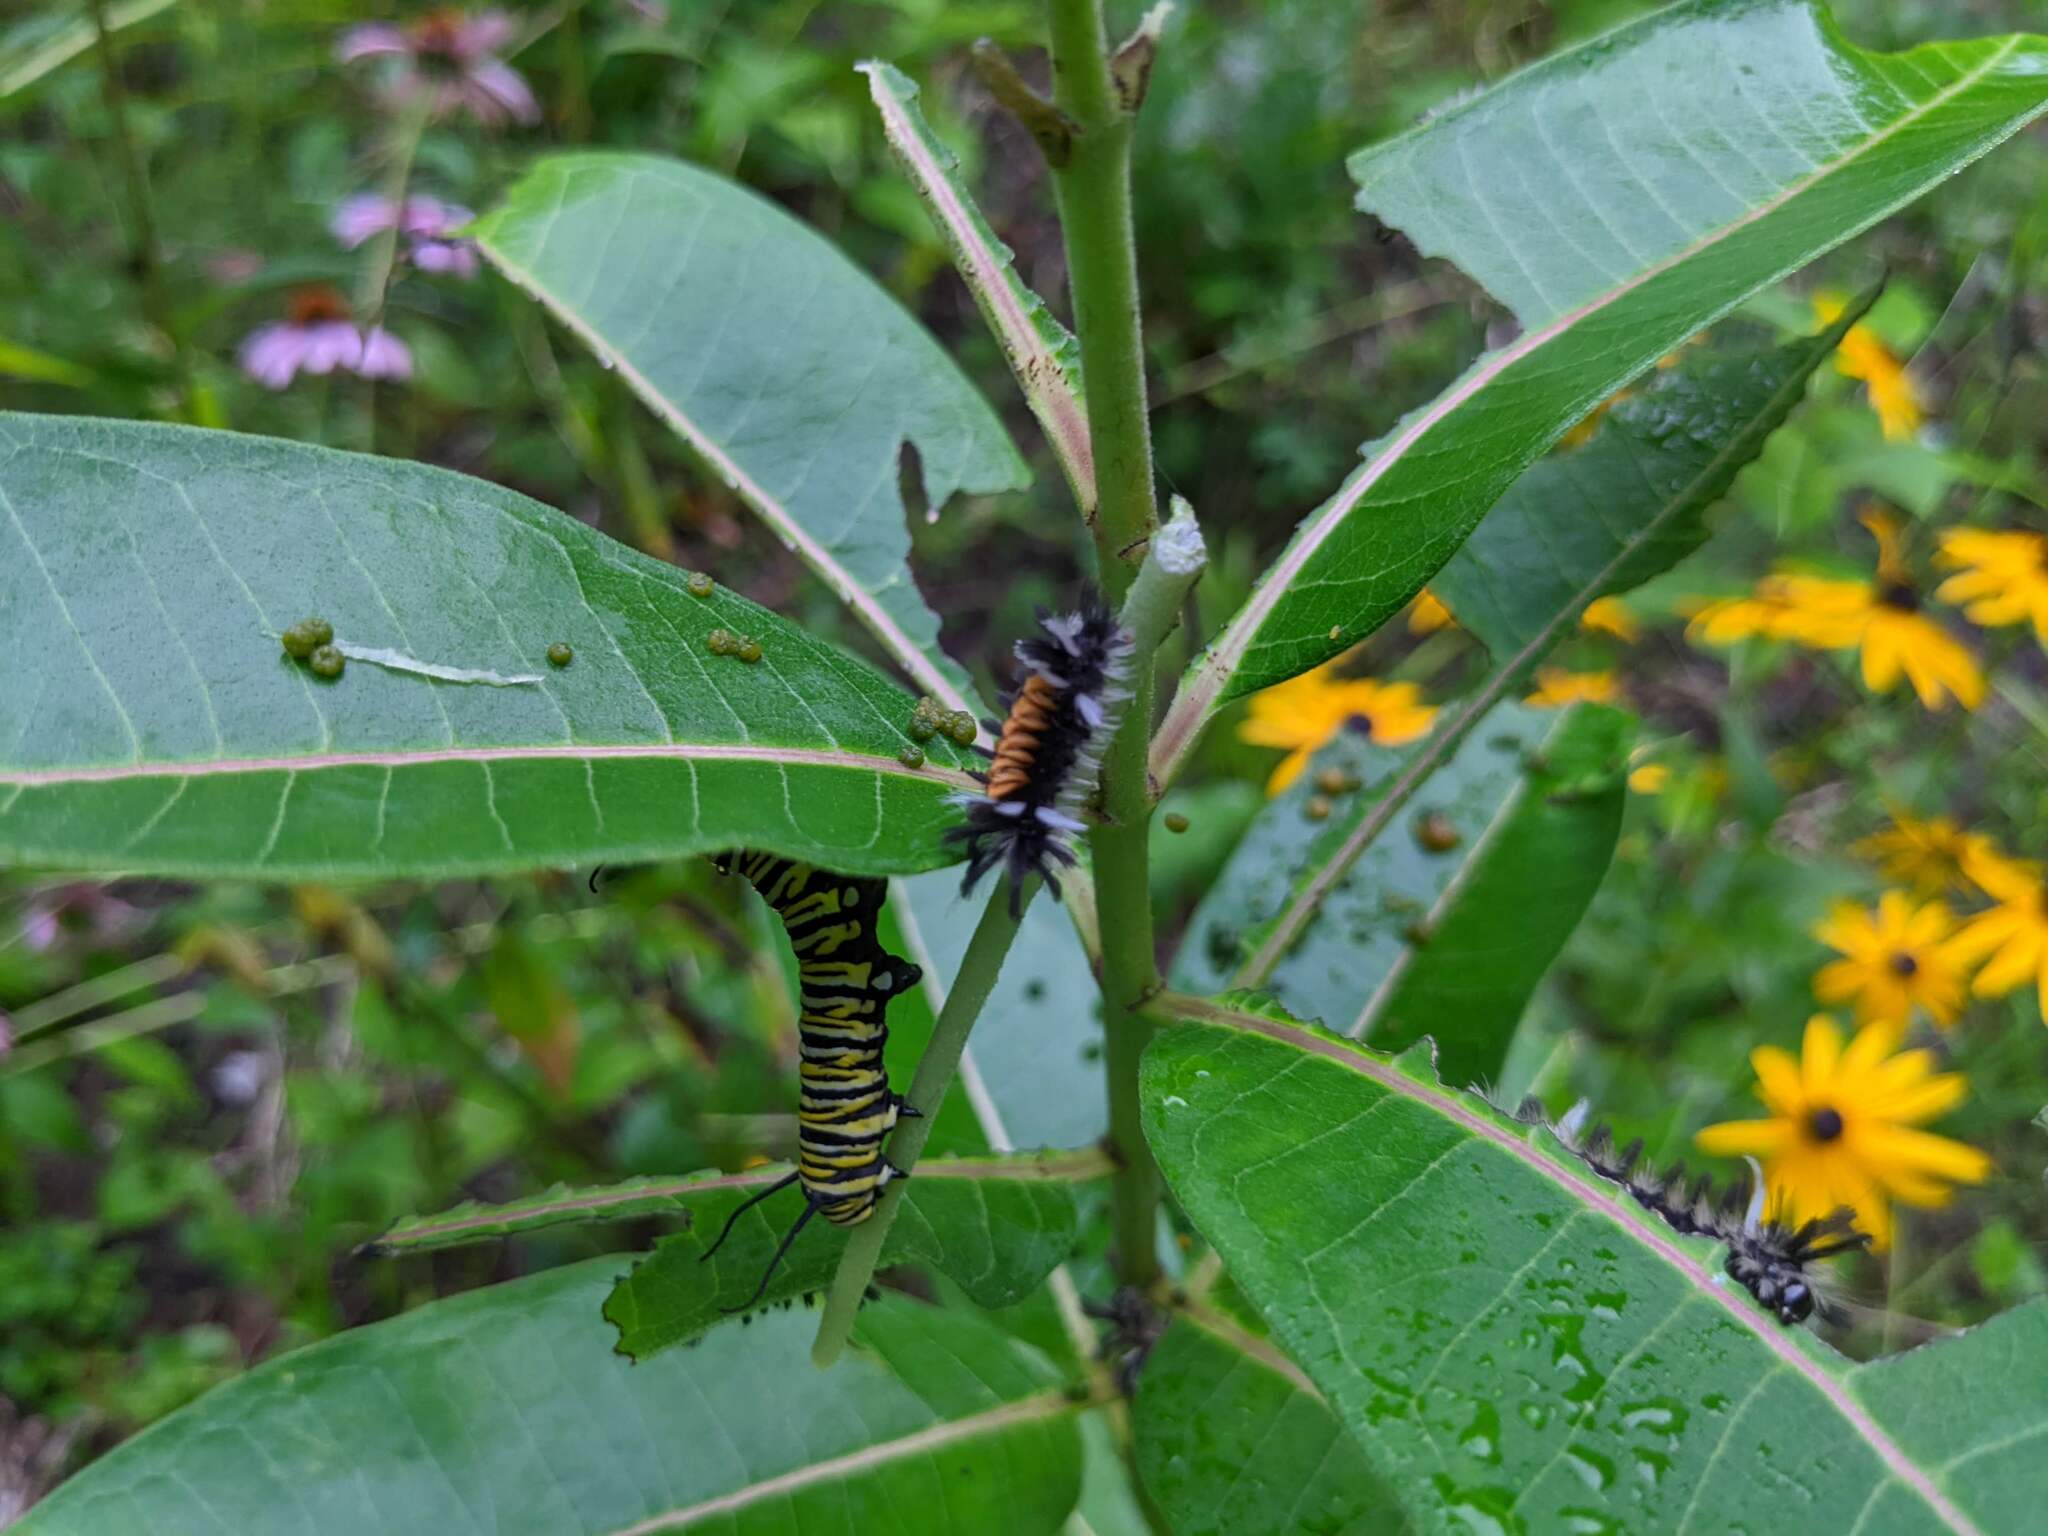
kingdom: Animalia
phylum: Arthropoda
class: Insecta
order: Lepidoptera
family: Erebidae
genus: Euchaetes
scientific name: Euchaetes egle
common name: Milkweed tussock moth
